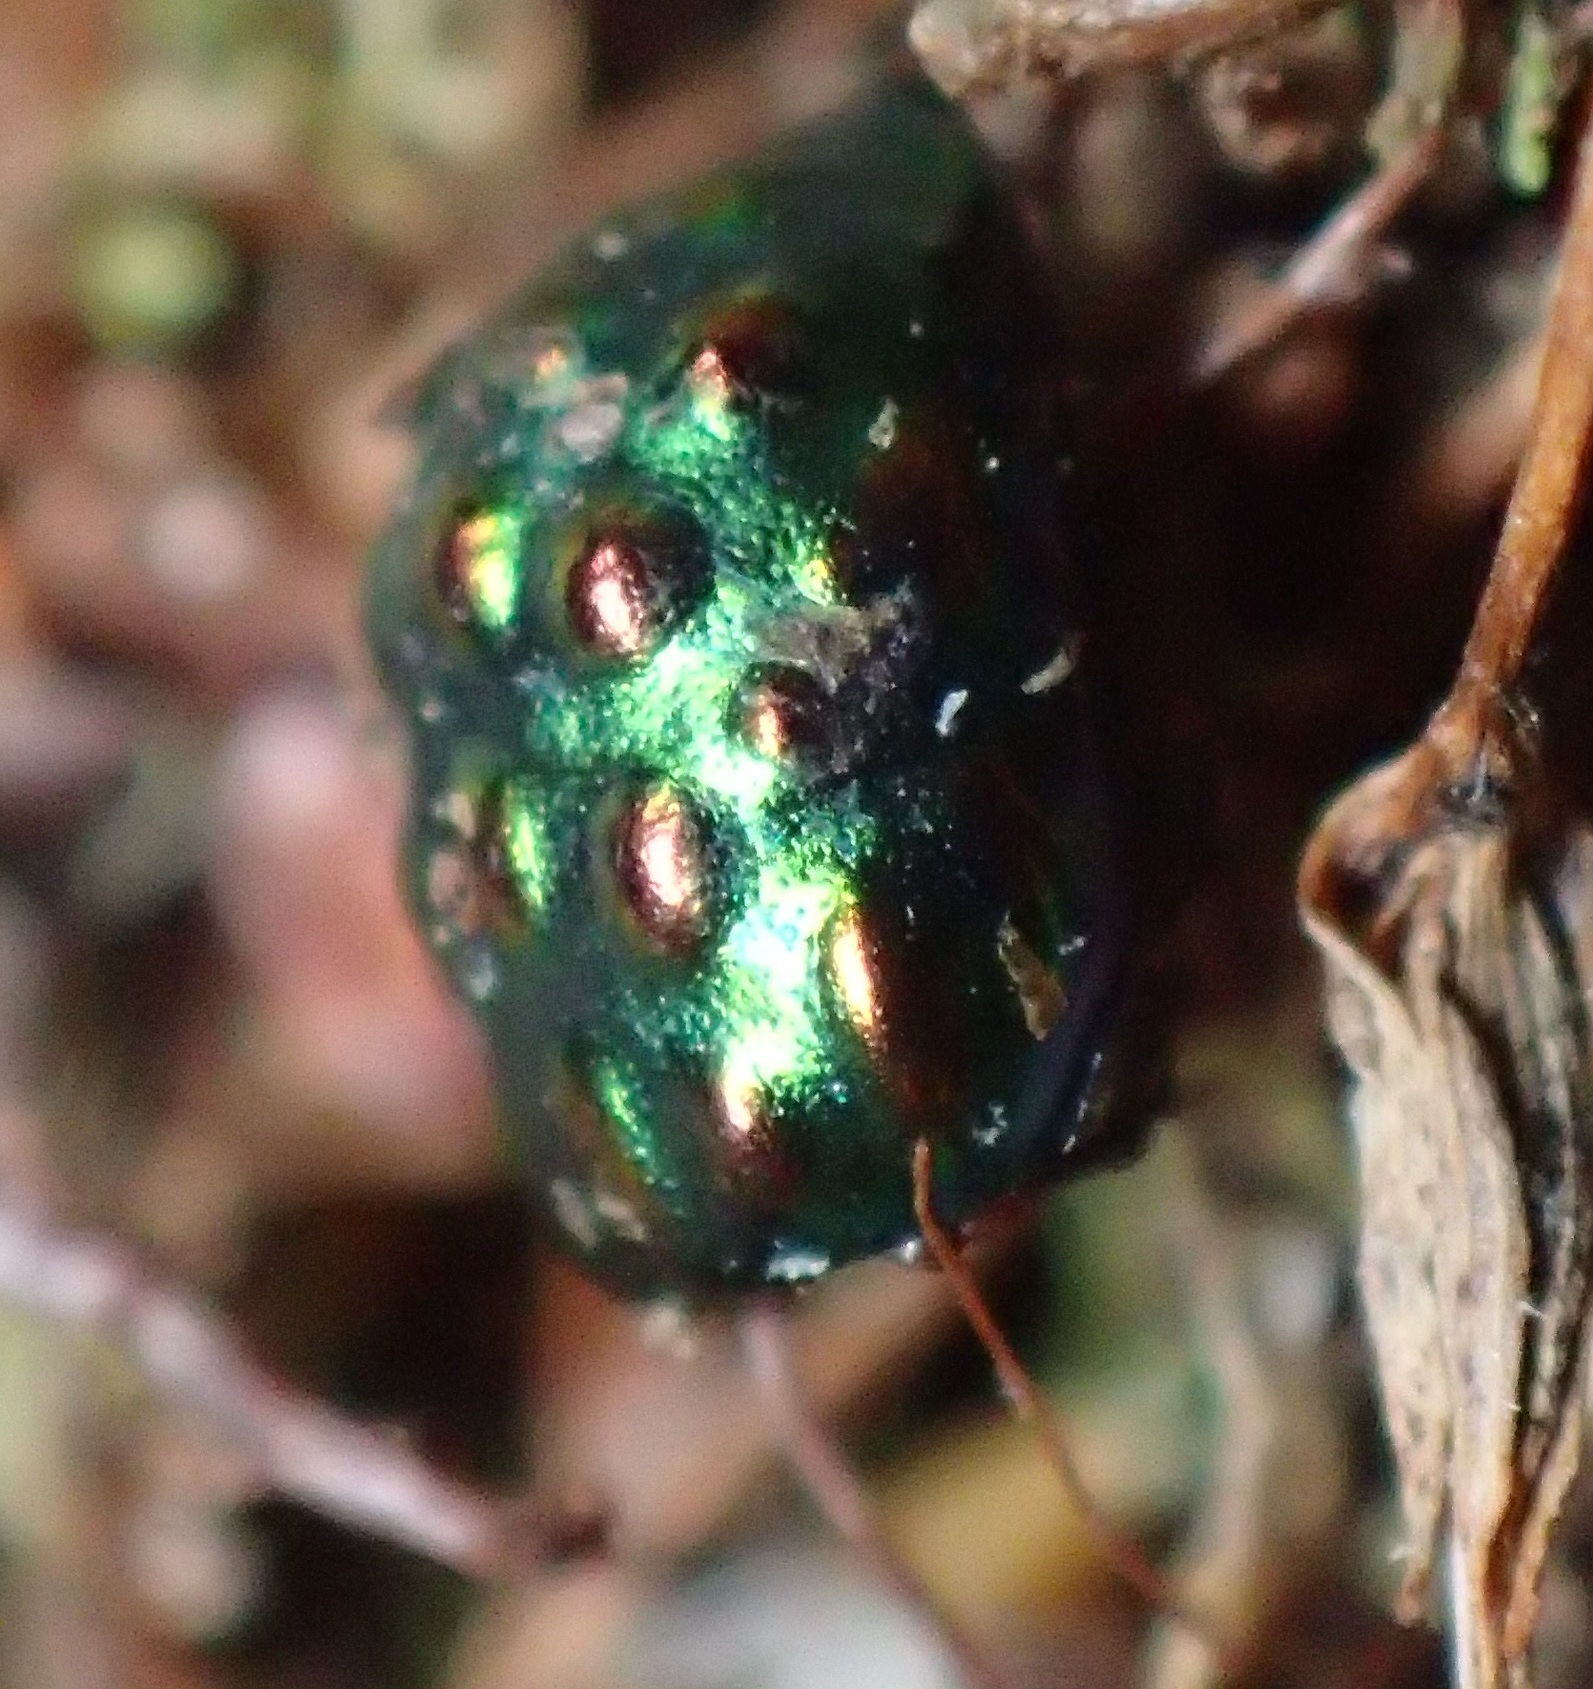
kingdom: Animalia
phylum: Arthropoda
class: Insecta
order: Coleoptera
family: Byrrhidae
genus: Notolioon
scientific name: Notolioon
